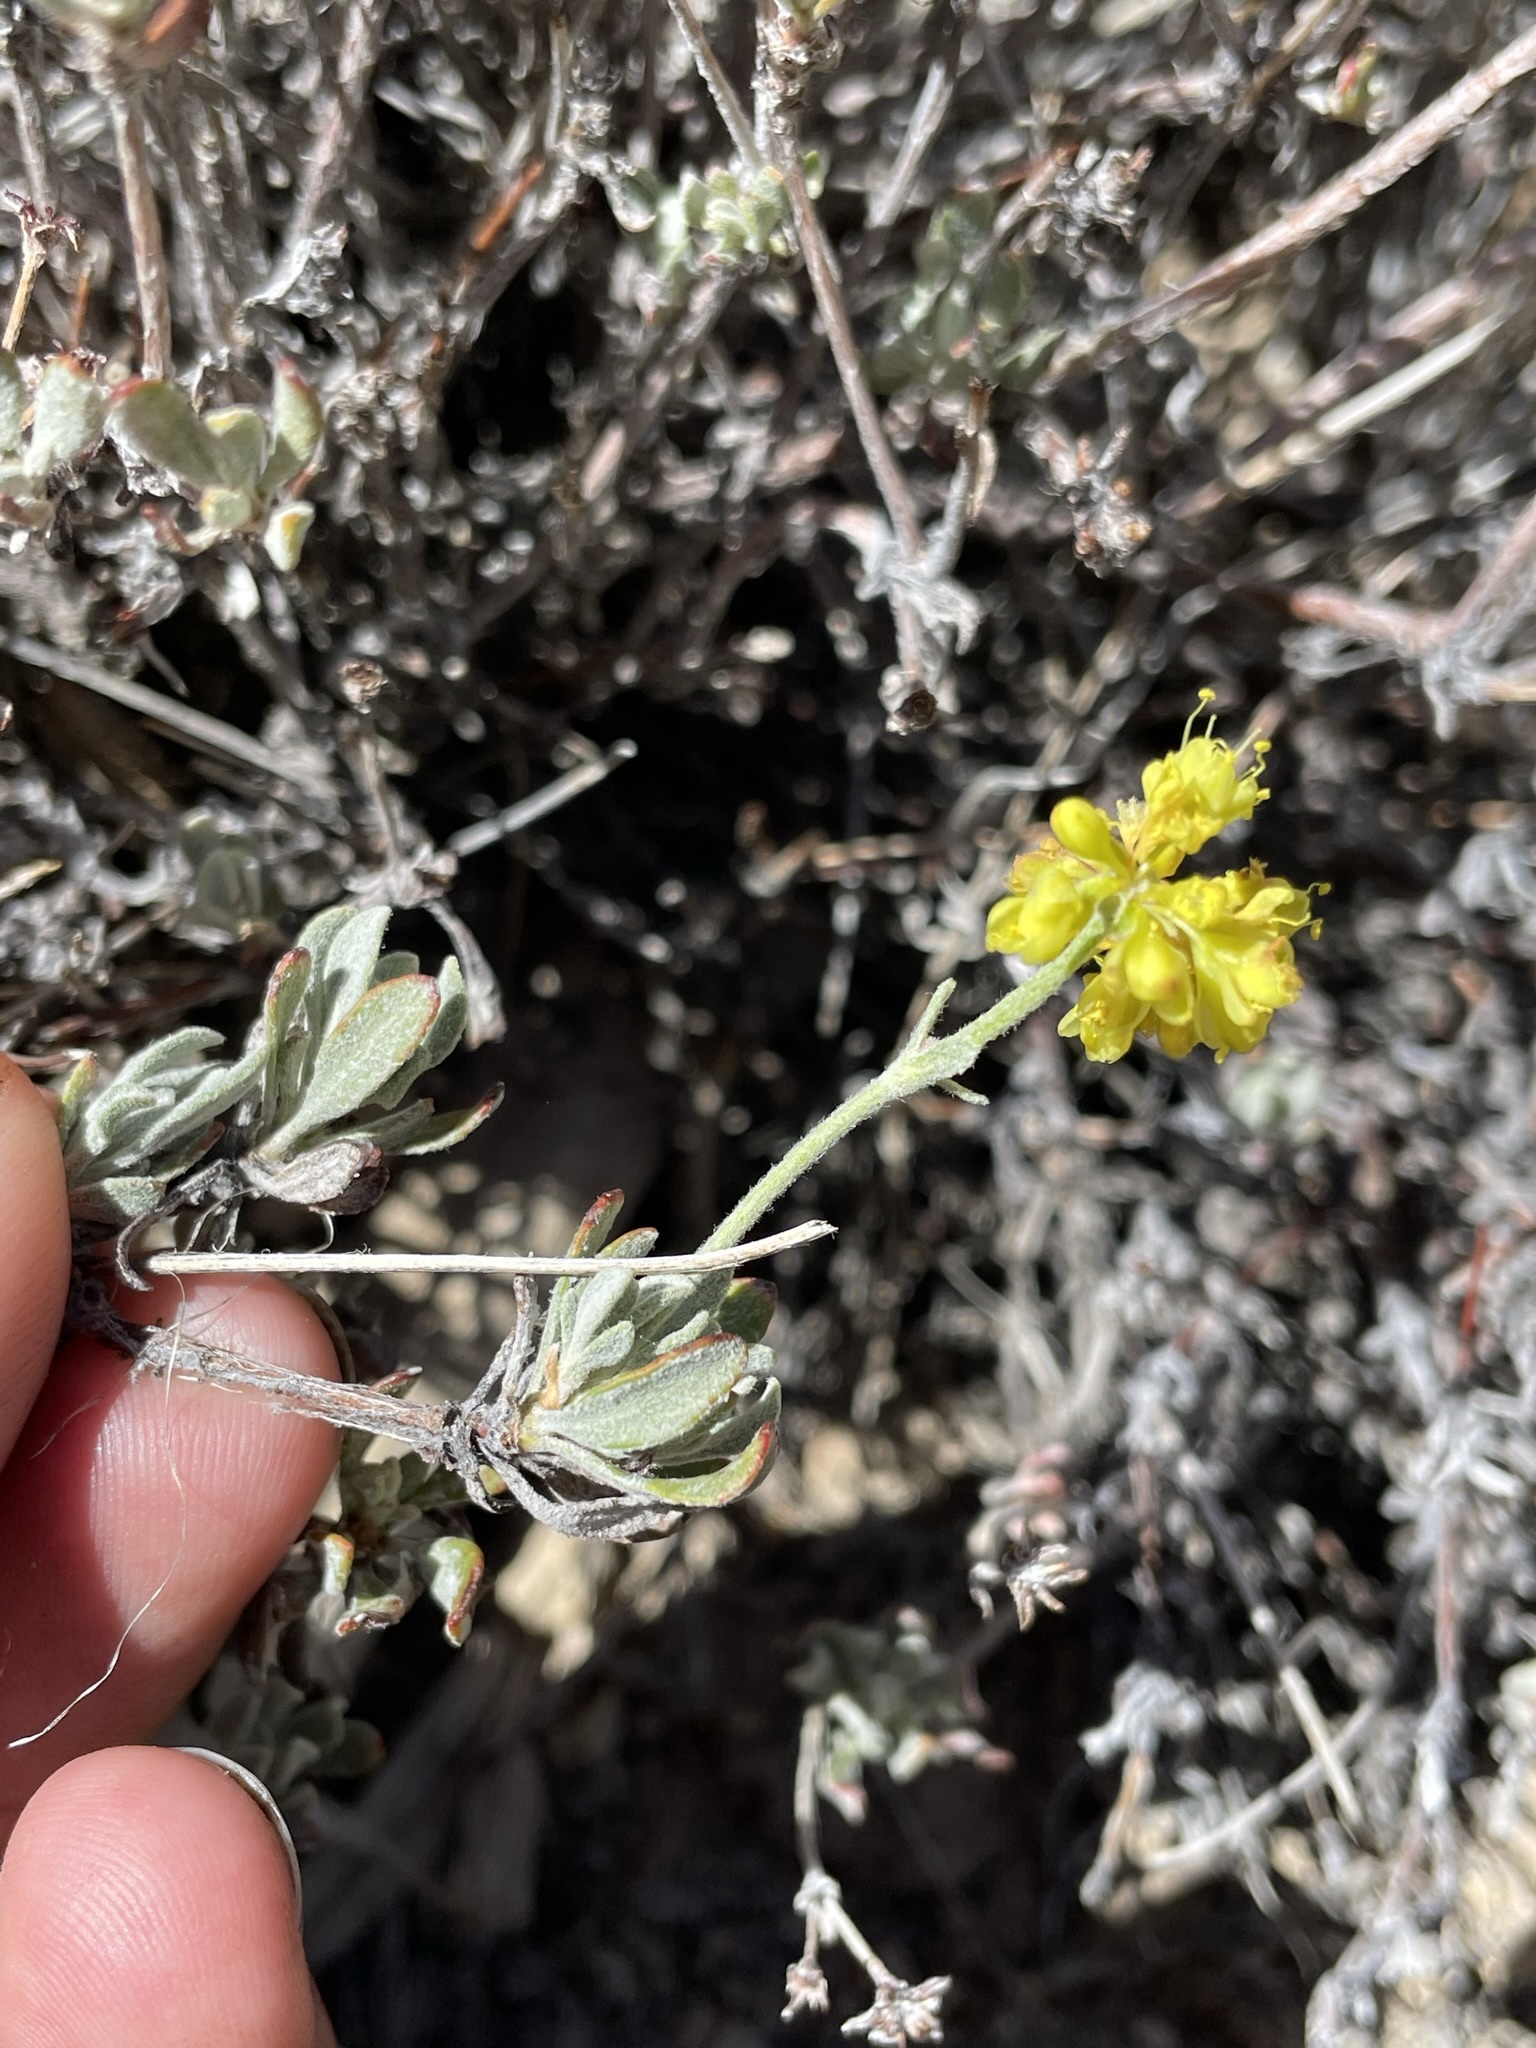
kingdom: Plantae
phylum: Tracheophyta
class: Magnoliopsida
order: Caryophyllales
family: Polygonaceae
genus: Eriogonum
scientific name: Eriogonum umbellatum
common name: Sulfur-buckwheat
